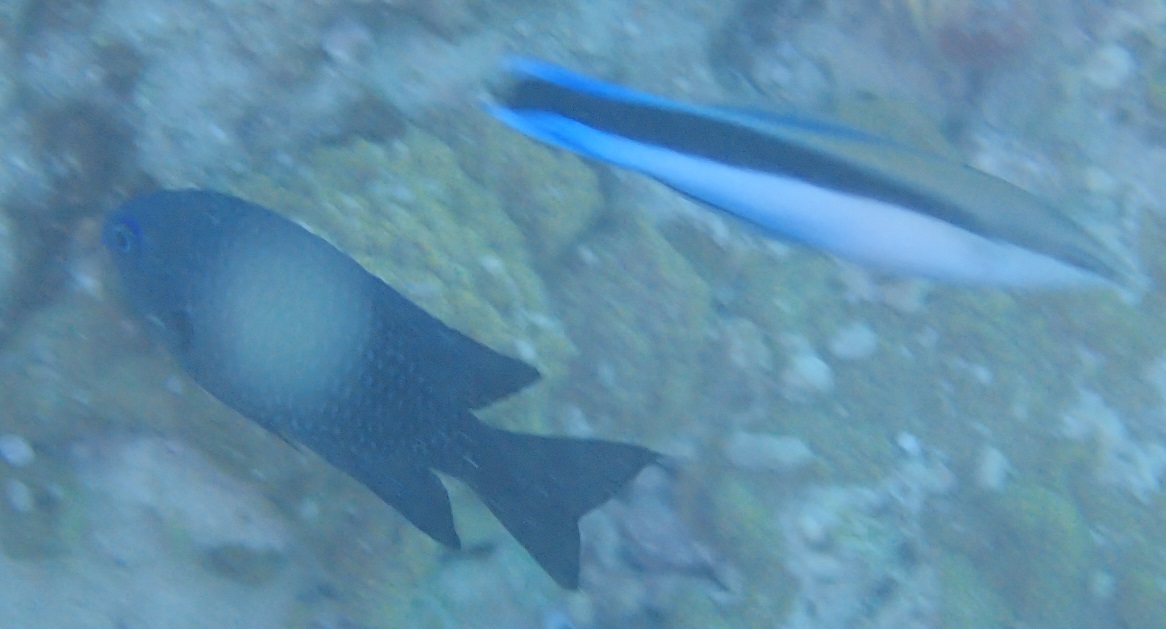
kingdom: Animalia
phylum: Chordata
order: Perciformes
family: Pomacentridae
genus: Pomacentrus
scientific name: Pomacentrus magniseptus
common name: Blackfin damselfish
